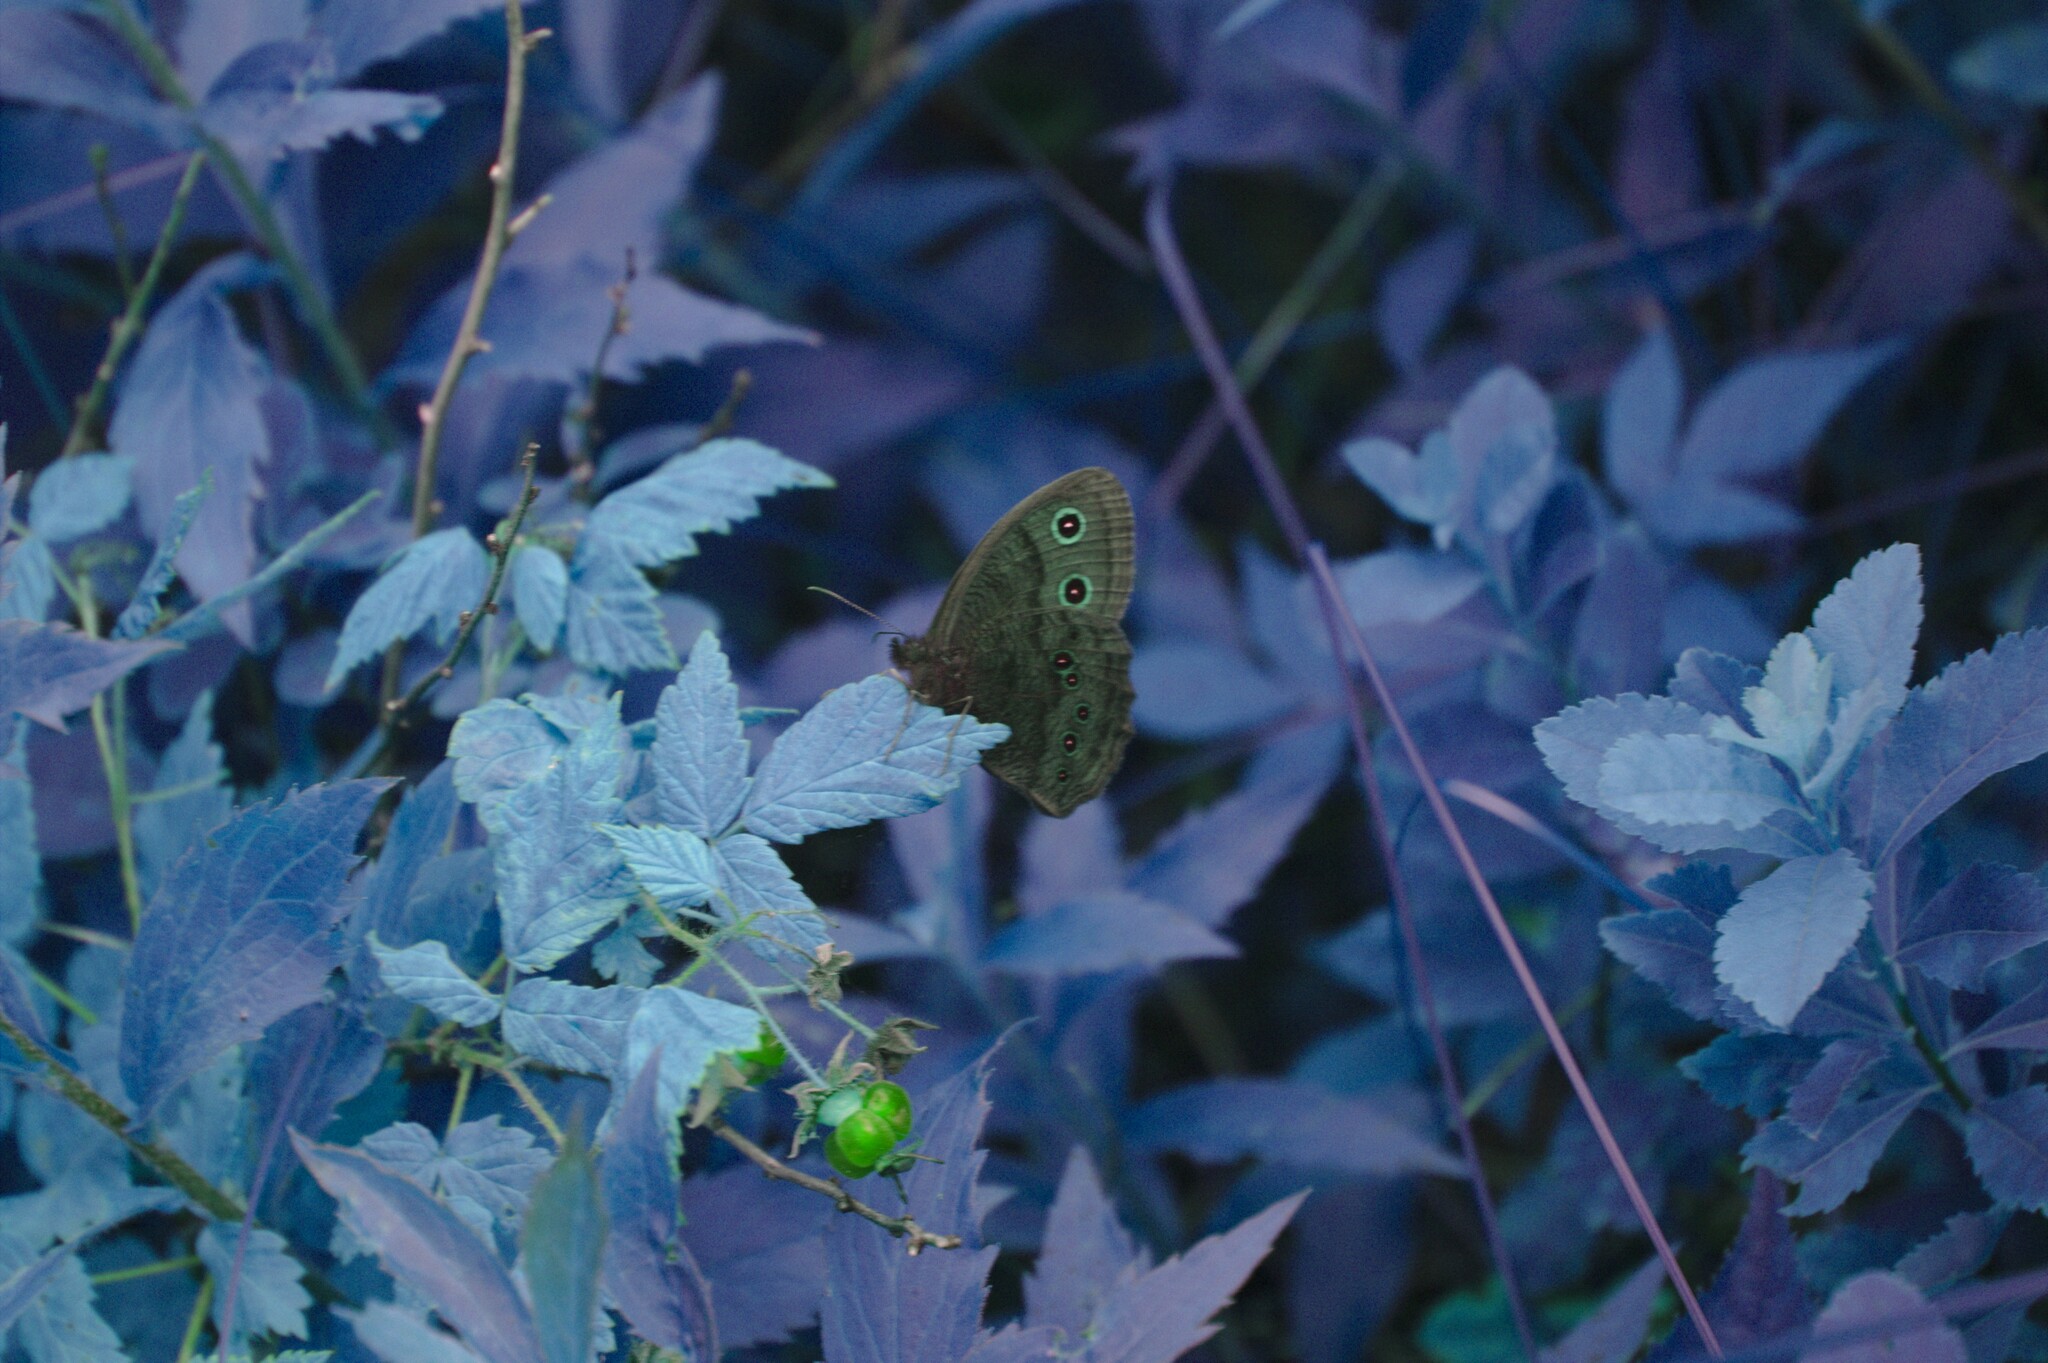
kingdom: Plantae
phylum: Tracheophyta
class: Magnoliopsida
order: Rosales
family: Rosaceae
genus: Rubus
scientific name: Rubus idaeus
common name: Raspberry
